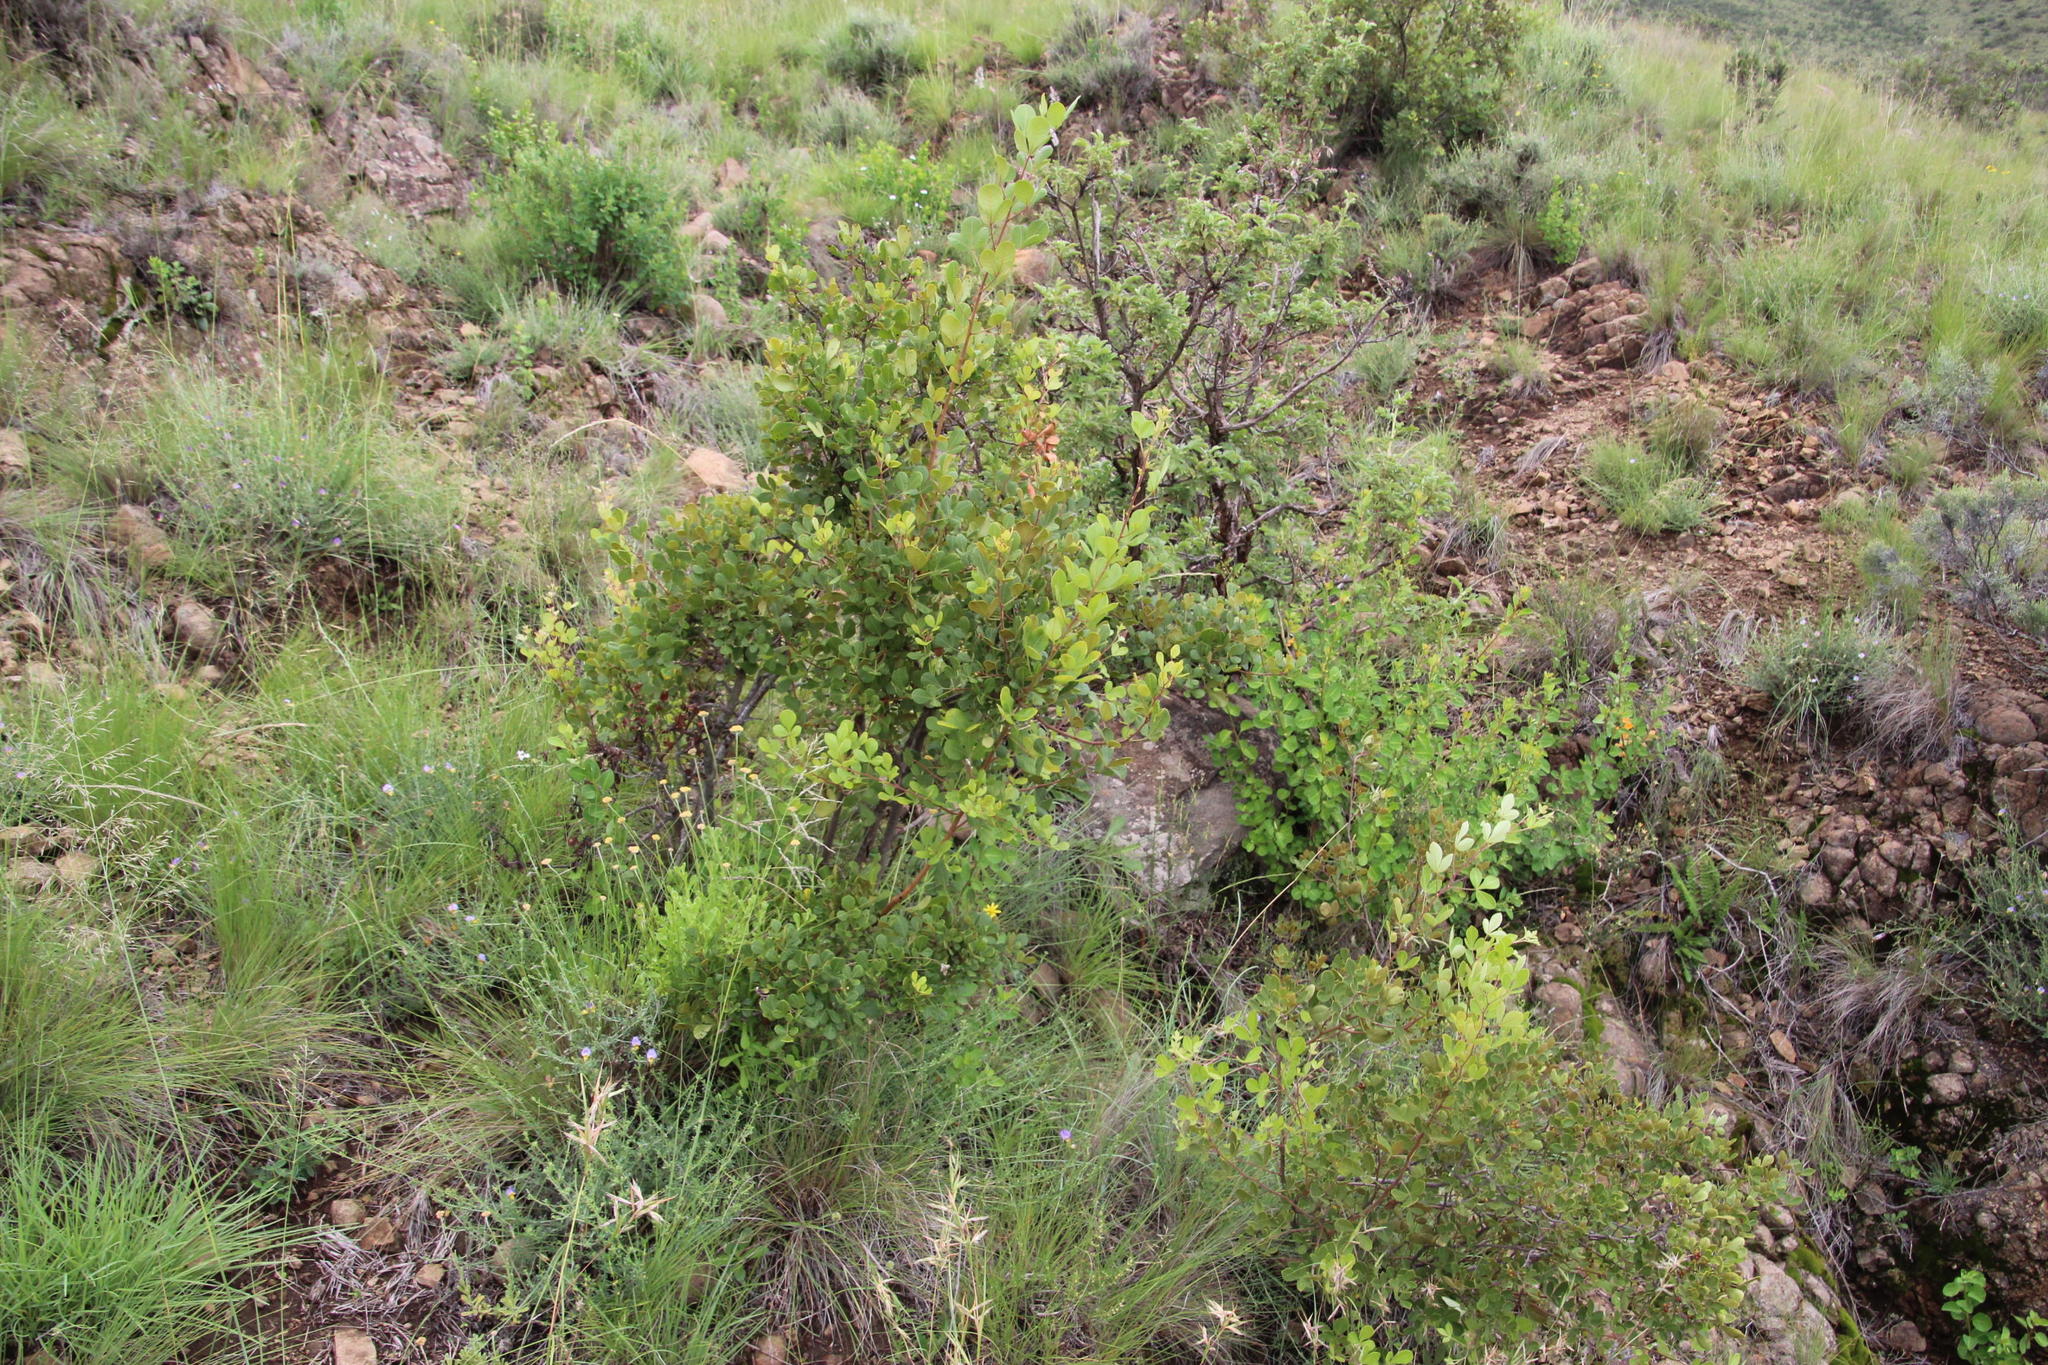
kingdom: Plantae
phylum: Tracheophyta
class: Magnoliopsida
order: Sapindales
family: Anacardiaceae
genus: Searsia
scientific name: Searsia divaricata
